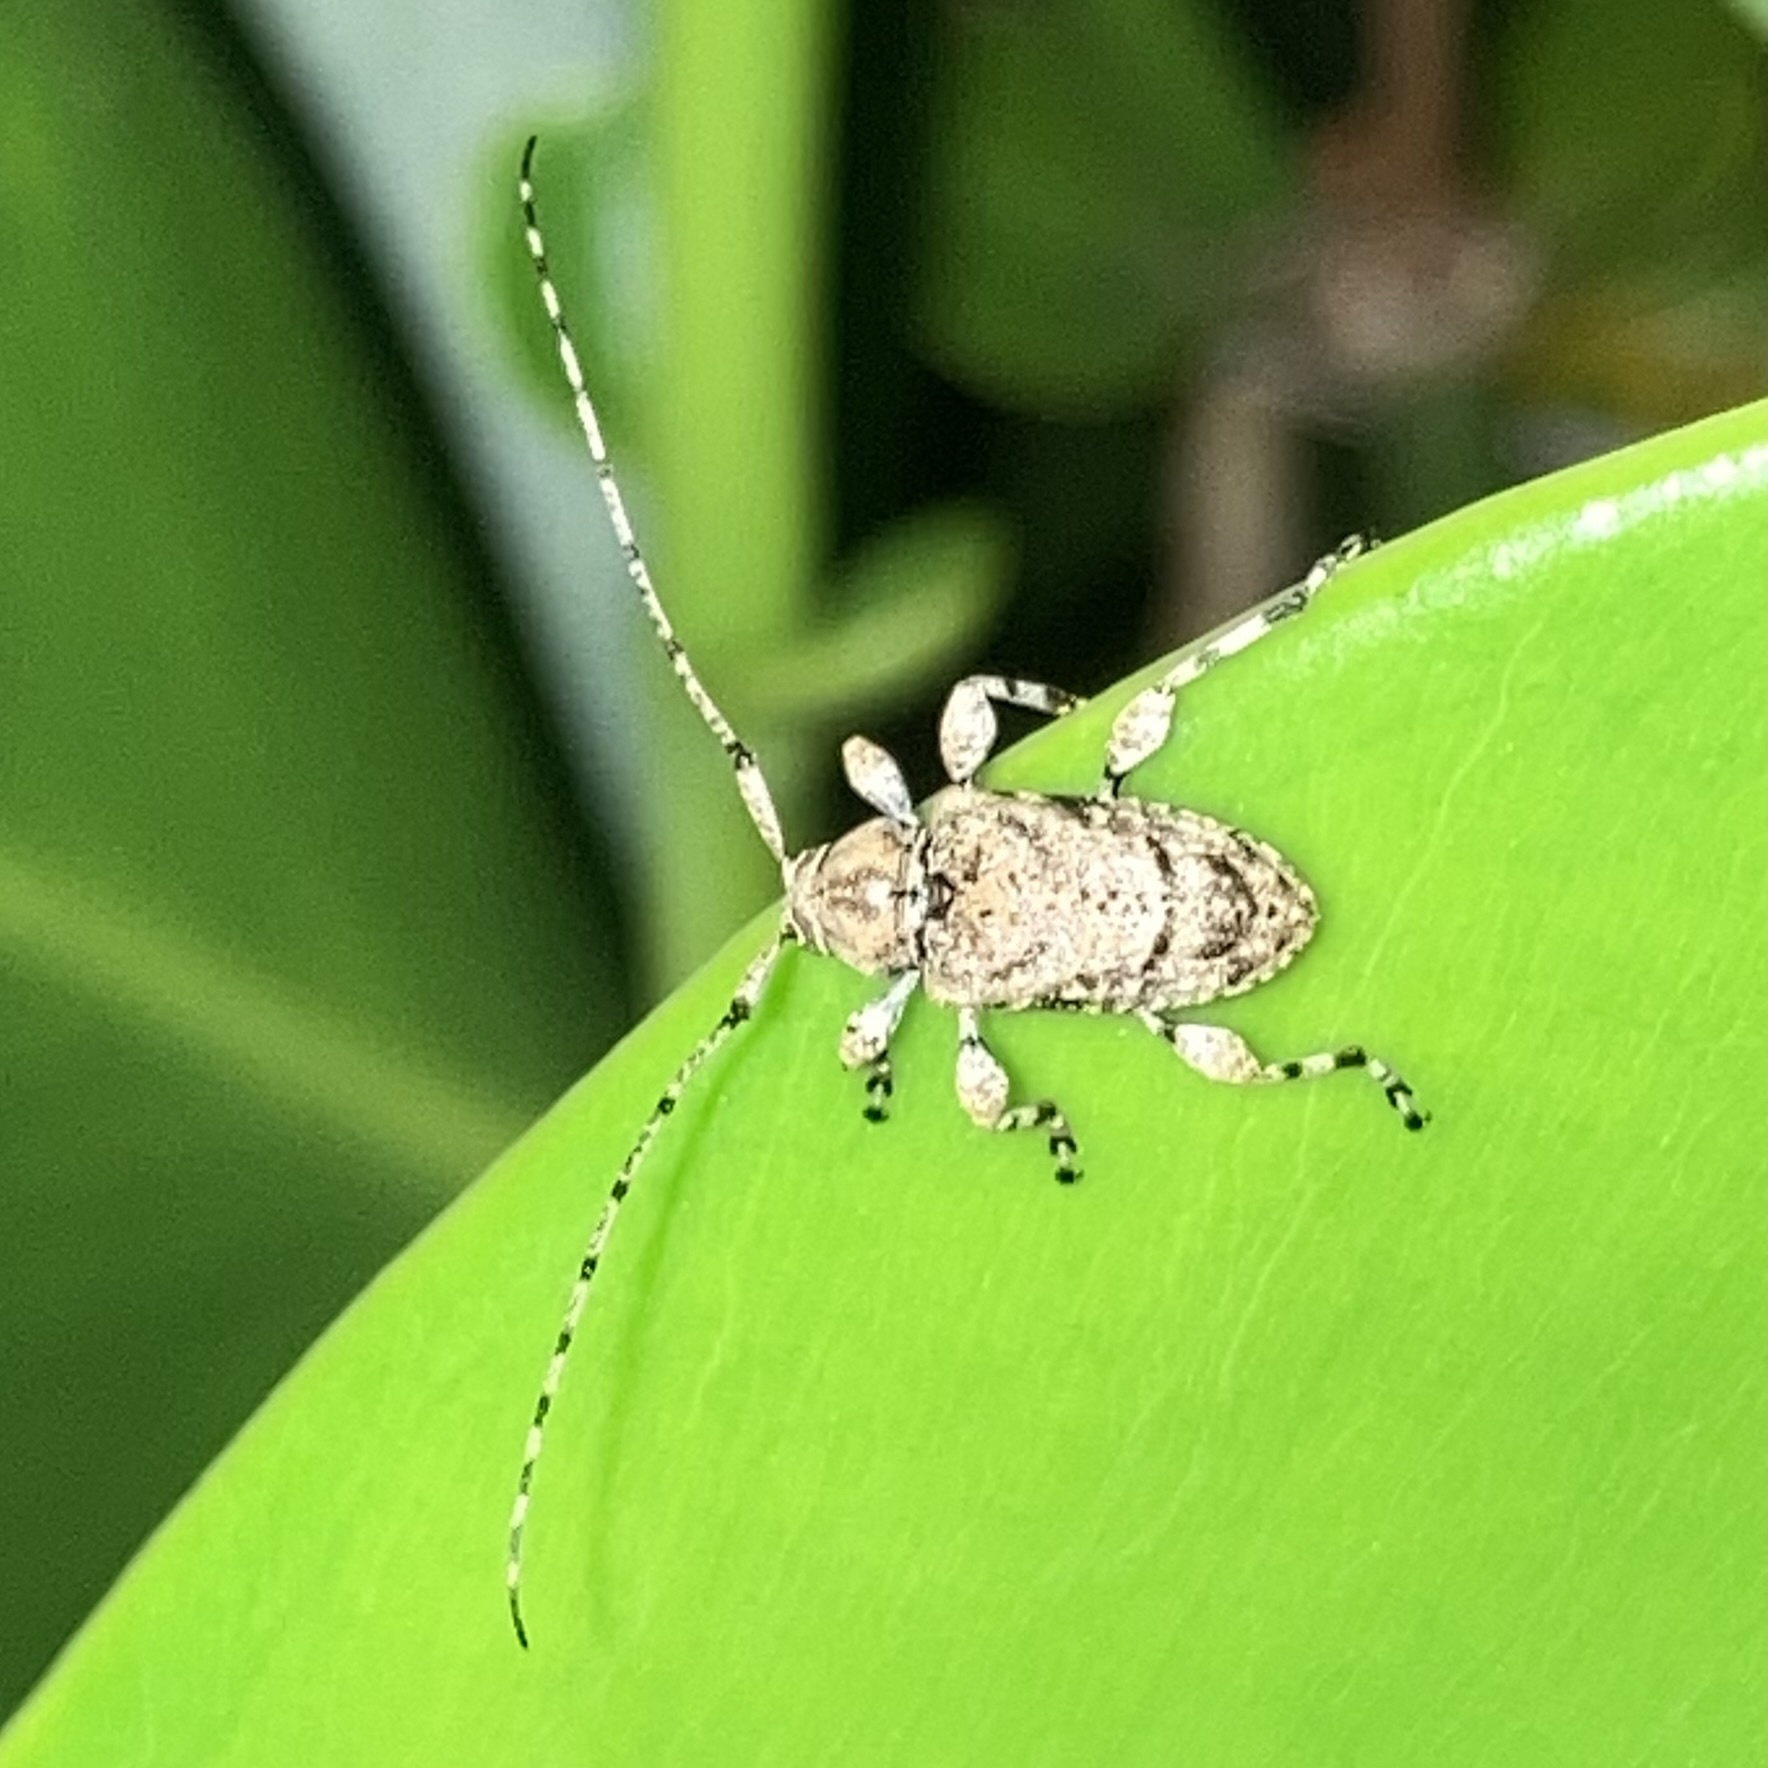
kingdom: Animalia
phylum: Arthropoda
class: Insecta
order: Coleoptera
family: Cerambycidae
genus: Leptostylopsis
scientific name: Leptostylopsis terraecolor
